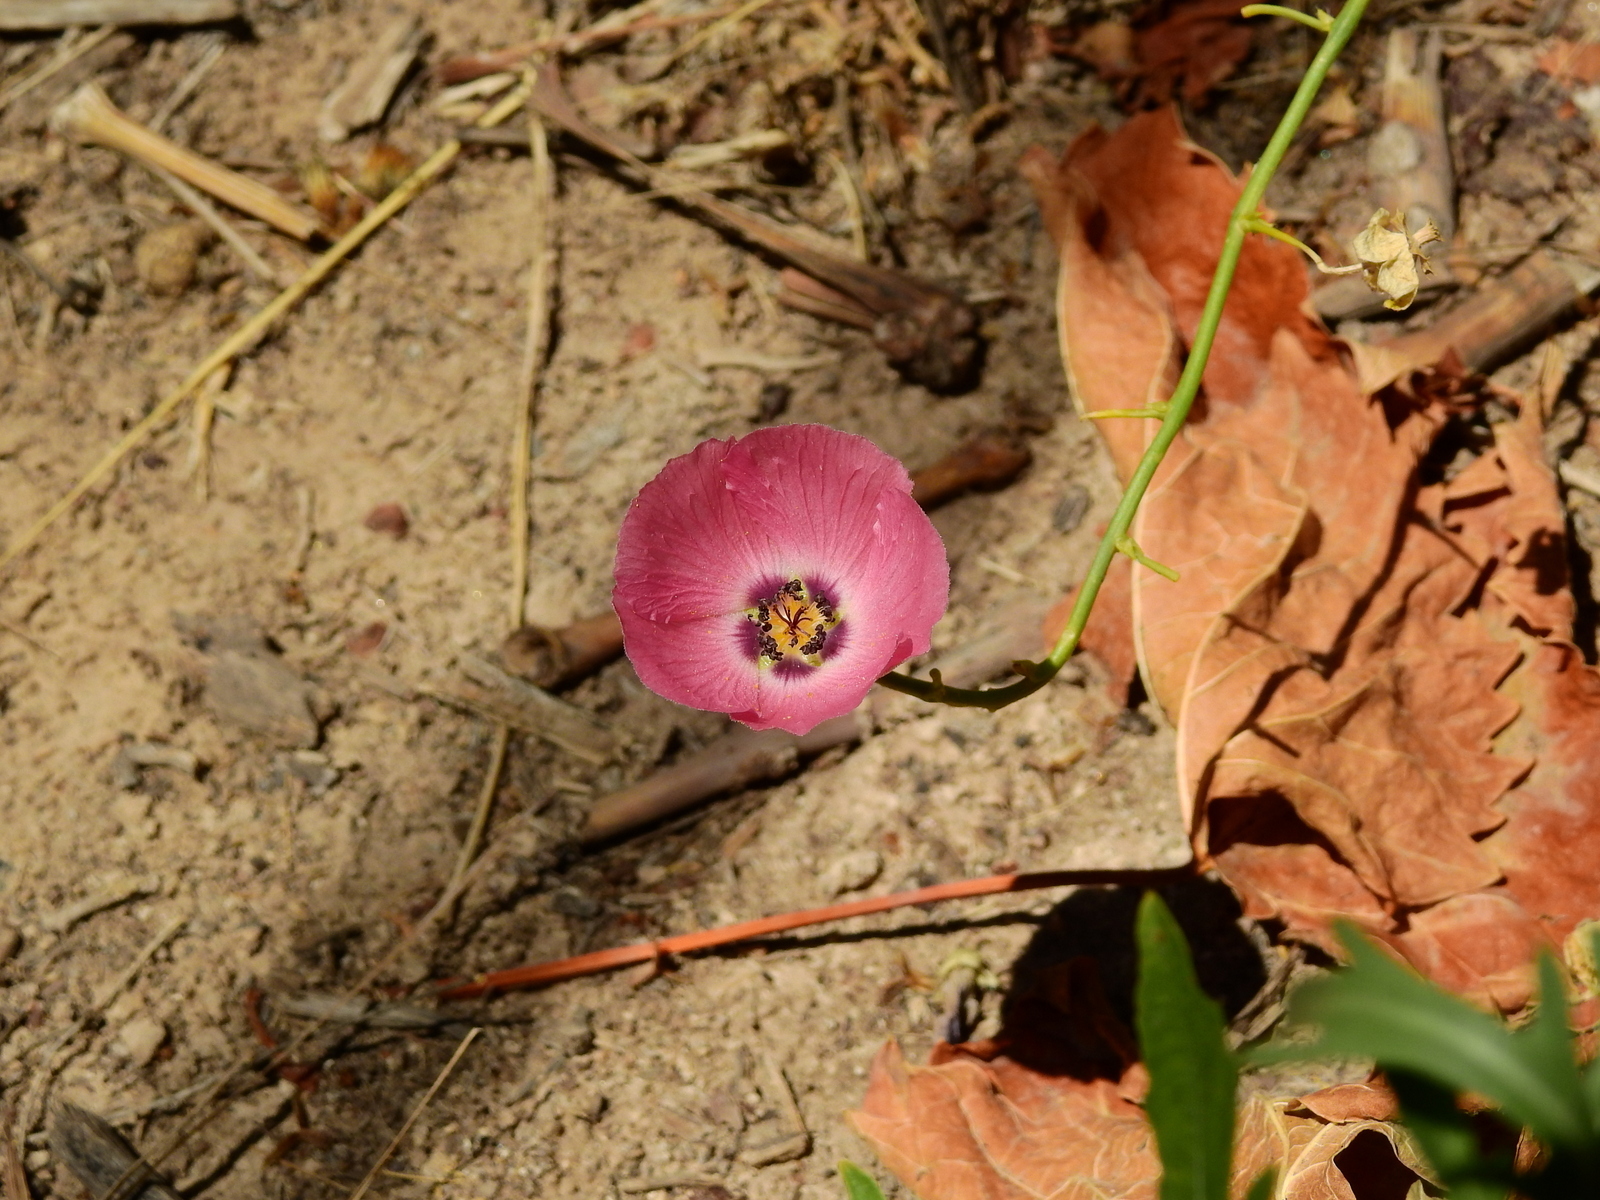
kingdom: Plantae
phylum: Tracheophyta
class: Magnoliopsida
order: Malvales
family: Malvaceae
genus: Lecanophora
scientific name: Lecanophora heterophylla
